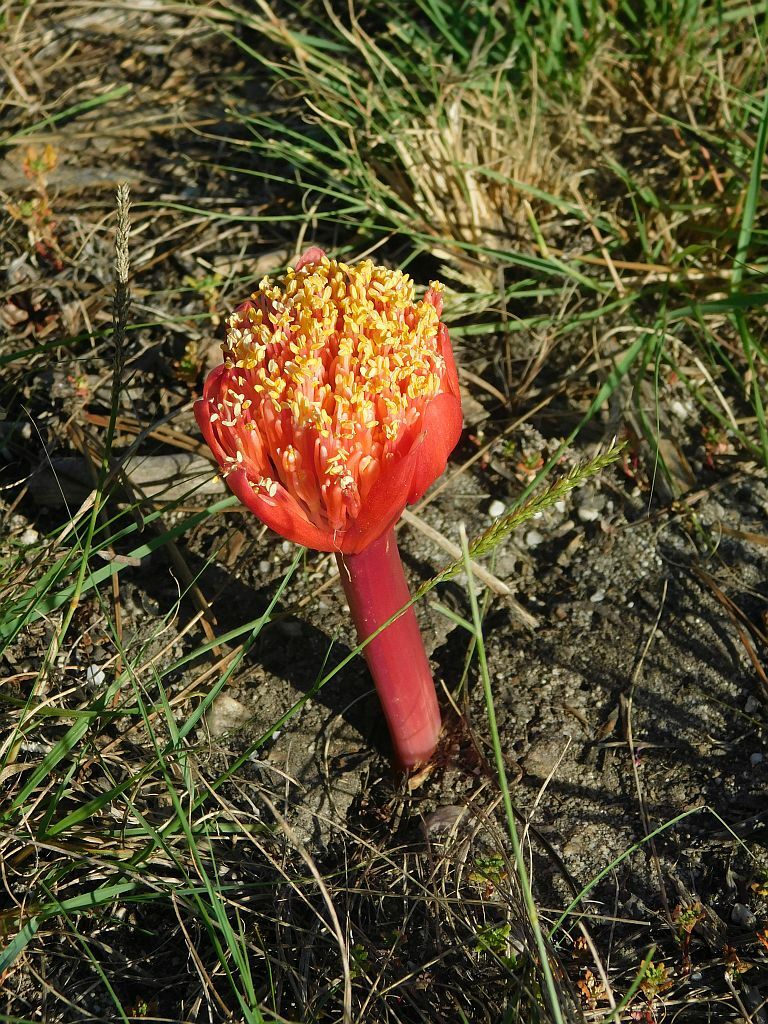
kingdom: Plantae
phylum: Tracheophyta
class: Liliopsida
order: Asparagales
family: Amaryllidaceae
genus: Haemanthus
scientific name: Haemanthus sanguineus
